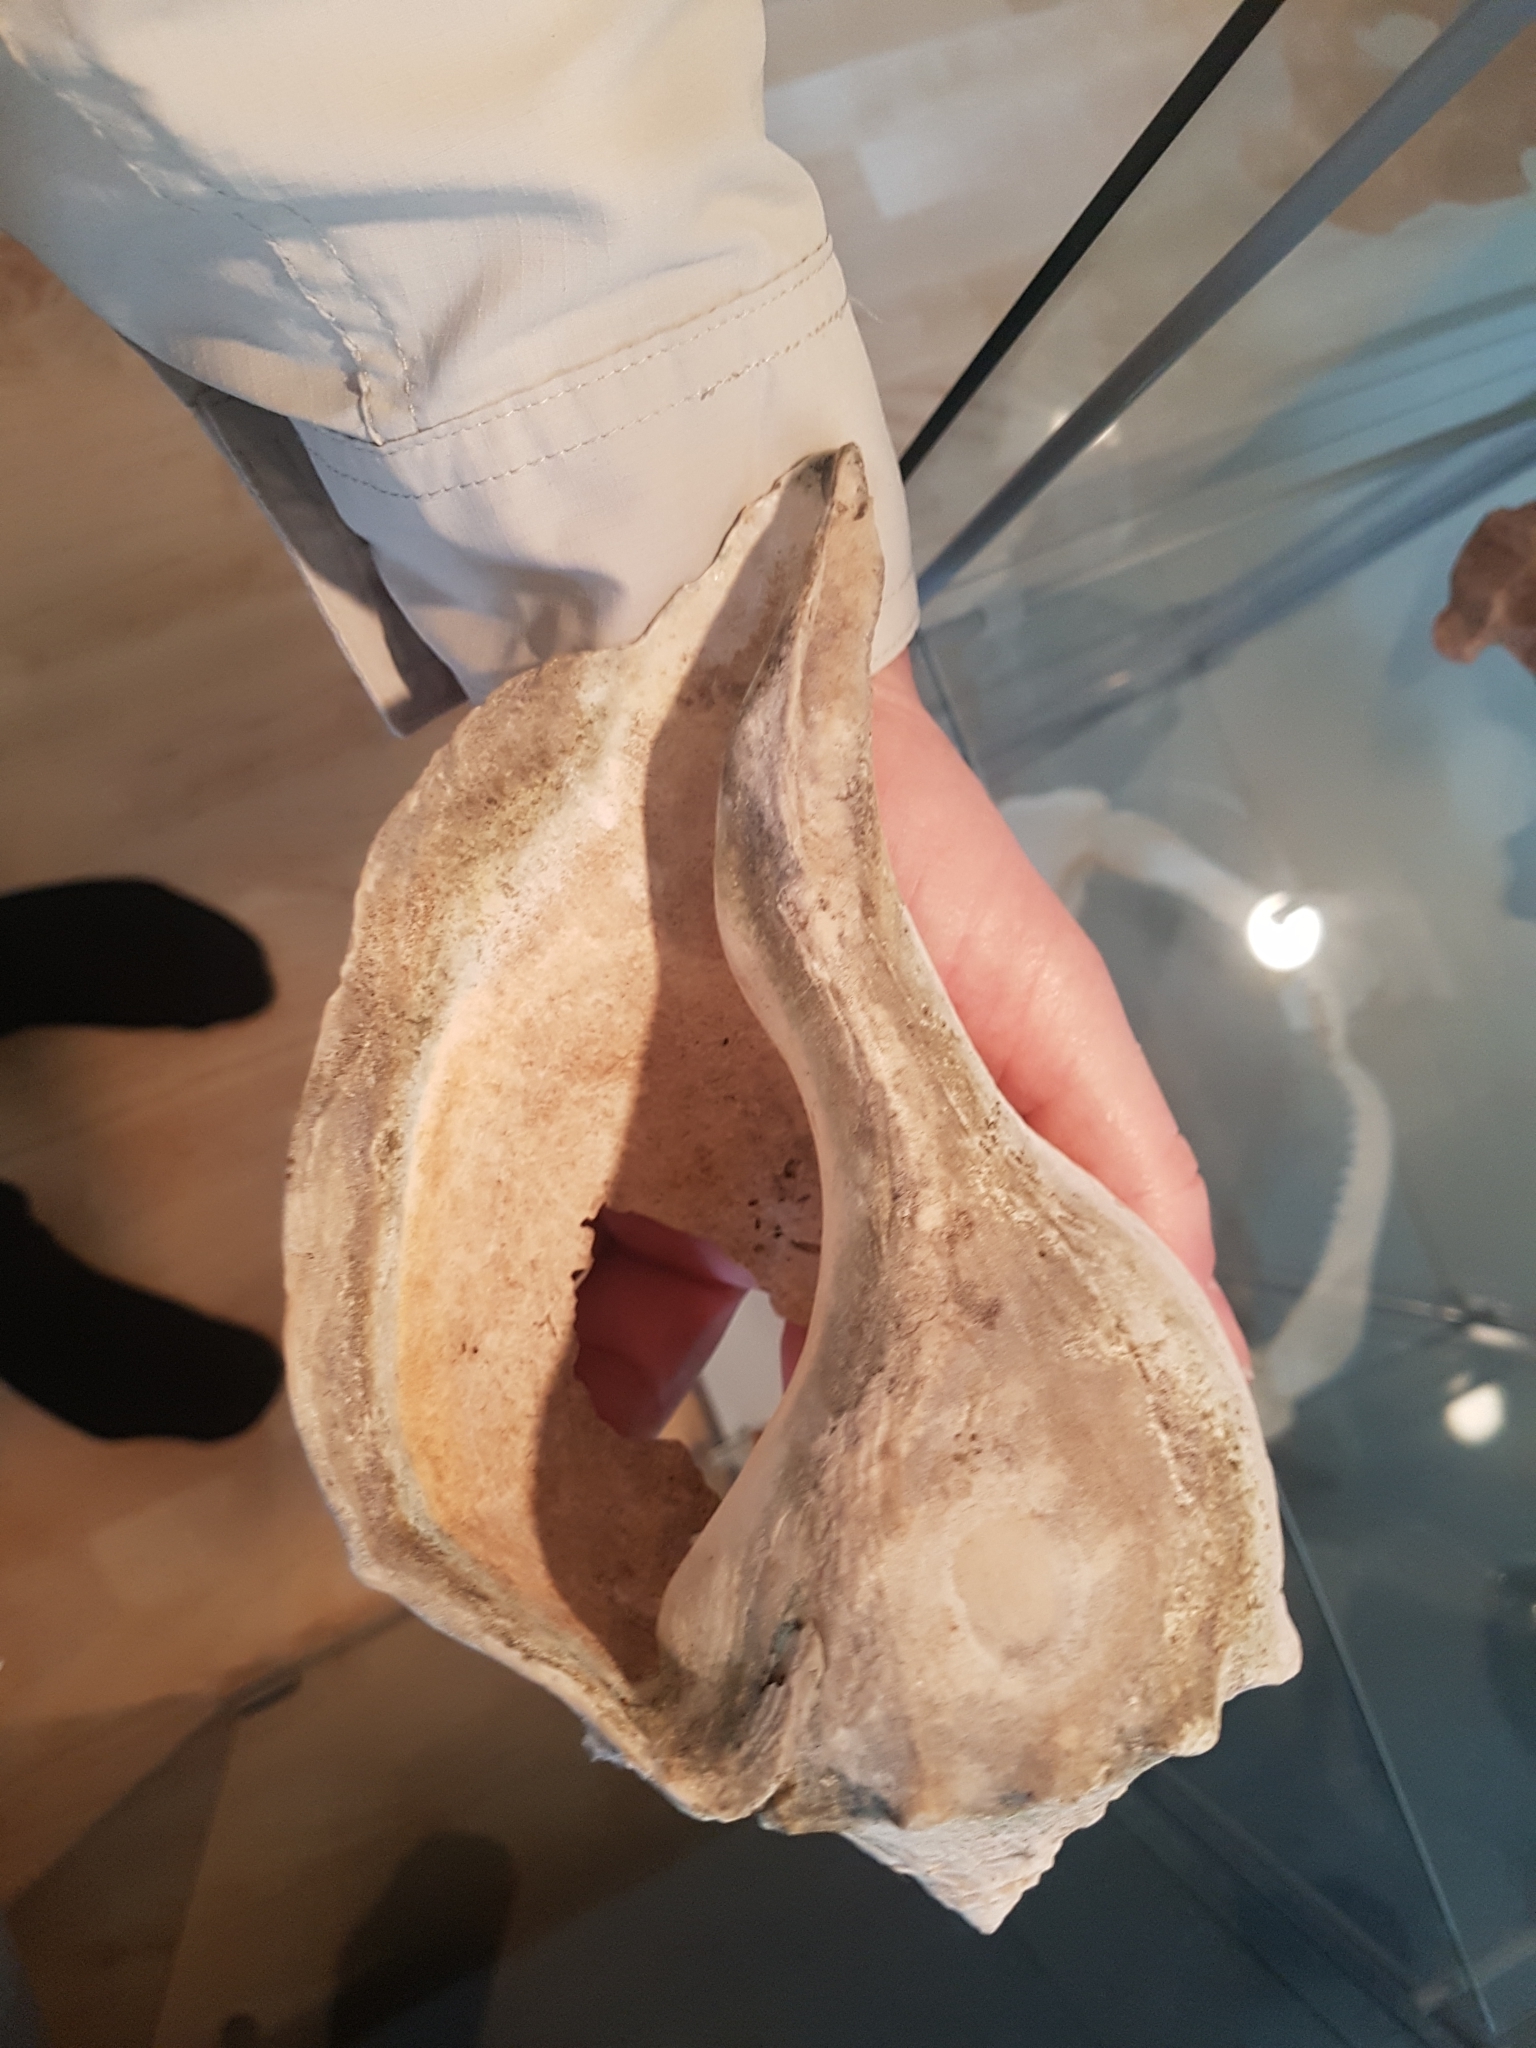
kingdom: Animalia
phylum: Mollusca
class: Gastropoda
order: Neogastropoda
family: Busyconidae
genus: Busycon
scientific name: Busycon carica
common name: Knobbed whelk
